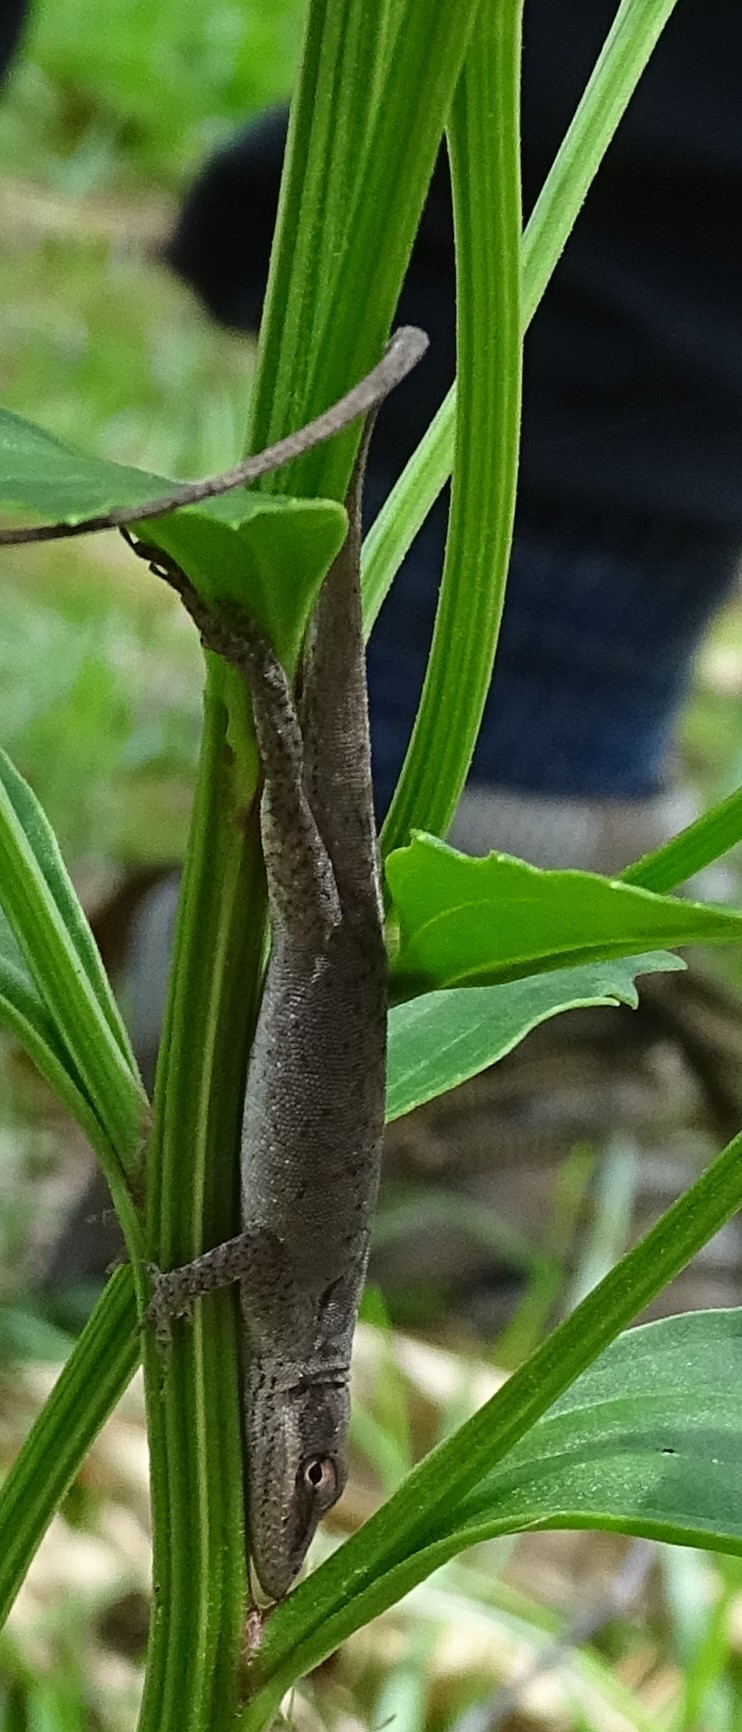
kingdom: Animalia
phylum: Chordata
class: Squamata
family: Dactyloidae
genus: Anolis
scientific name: Anolis carolinensis
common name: Green anole
